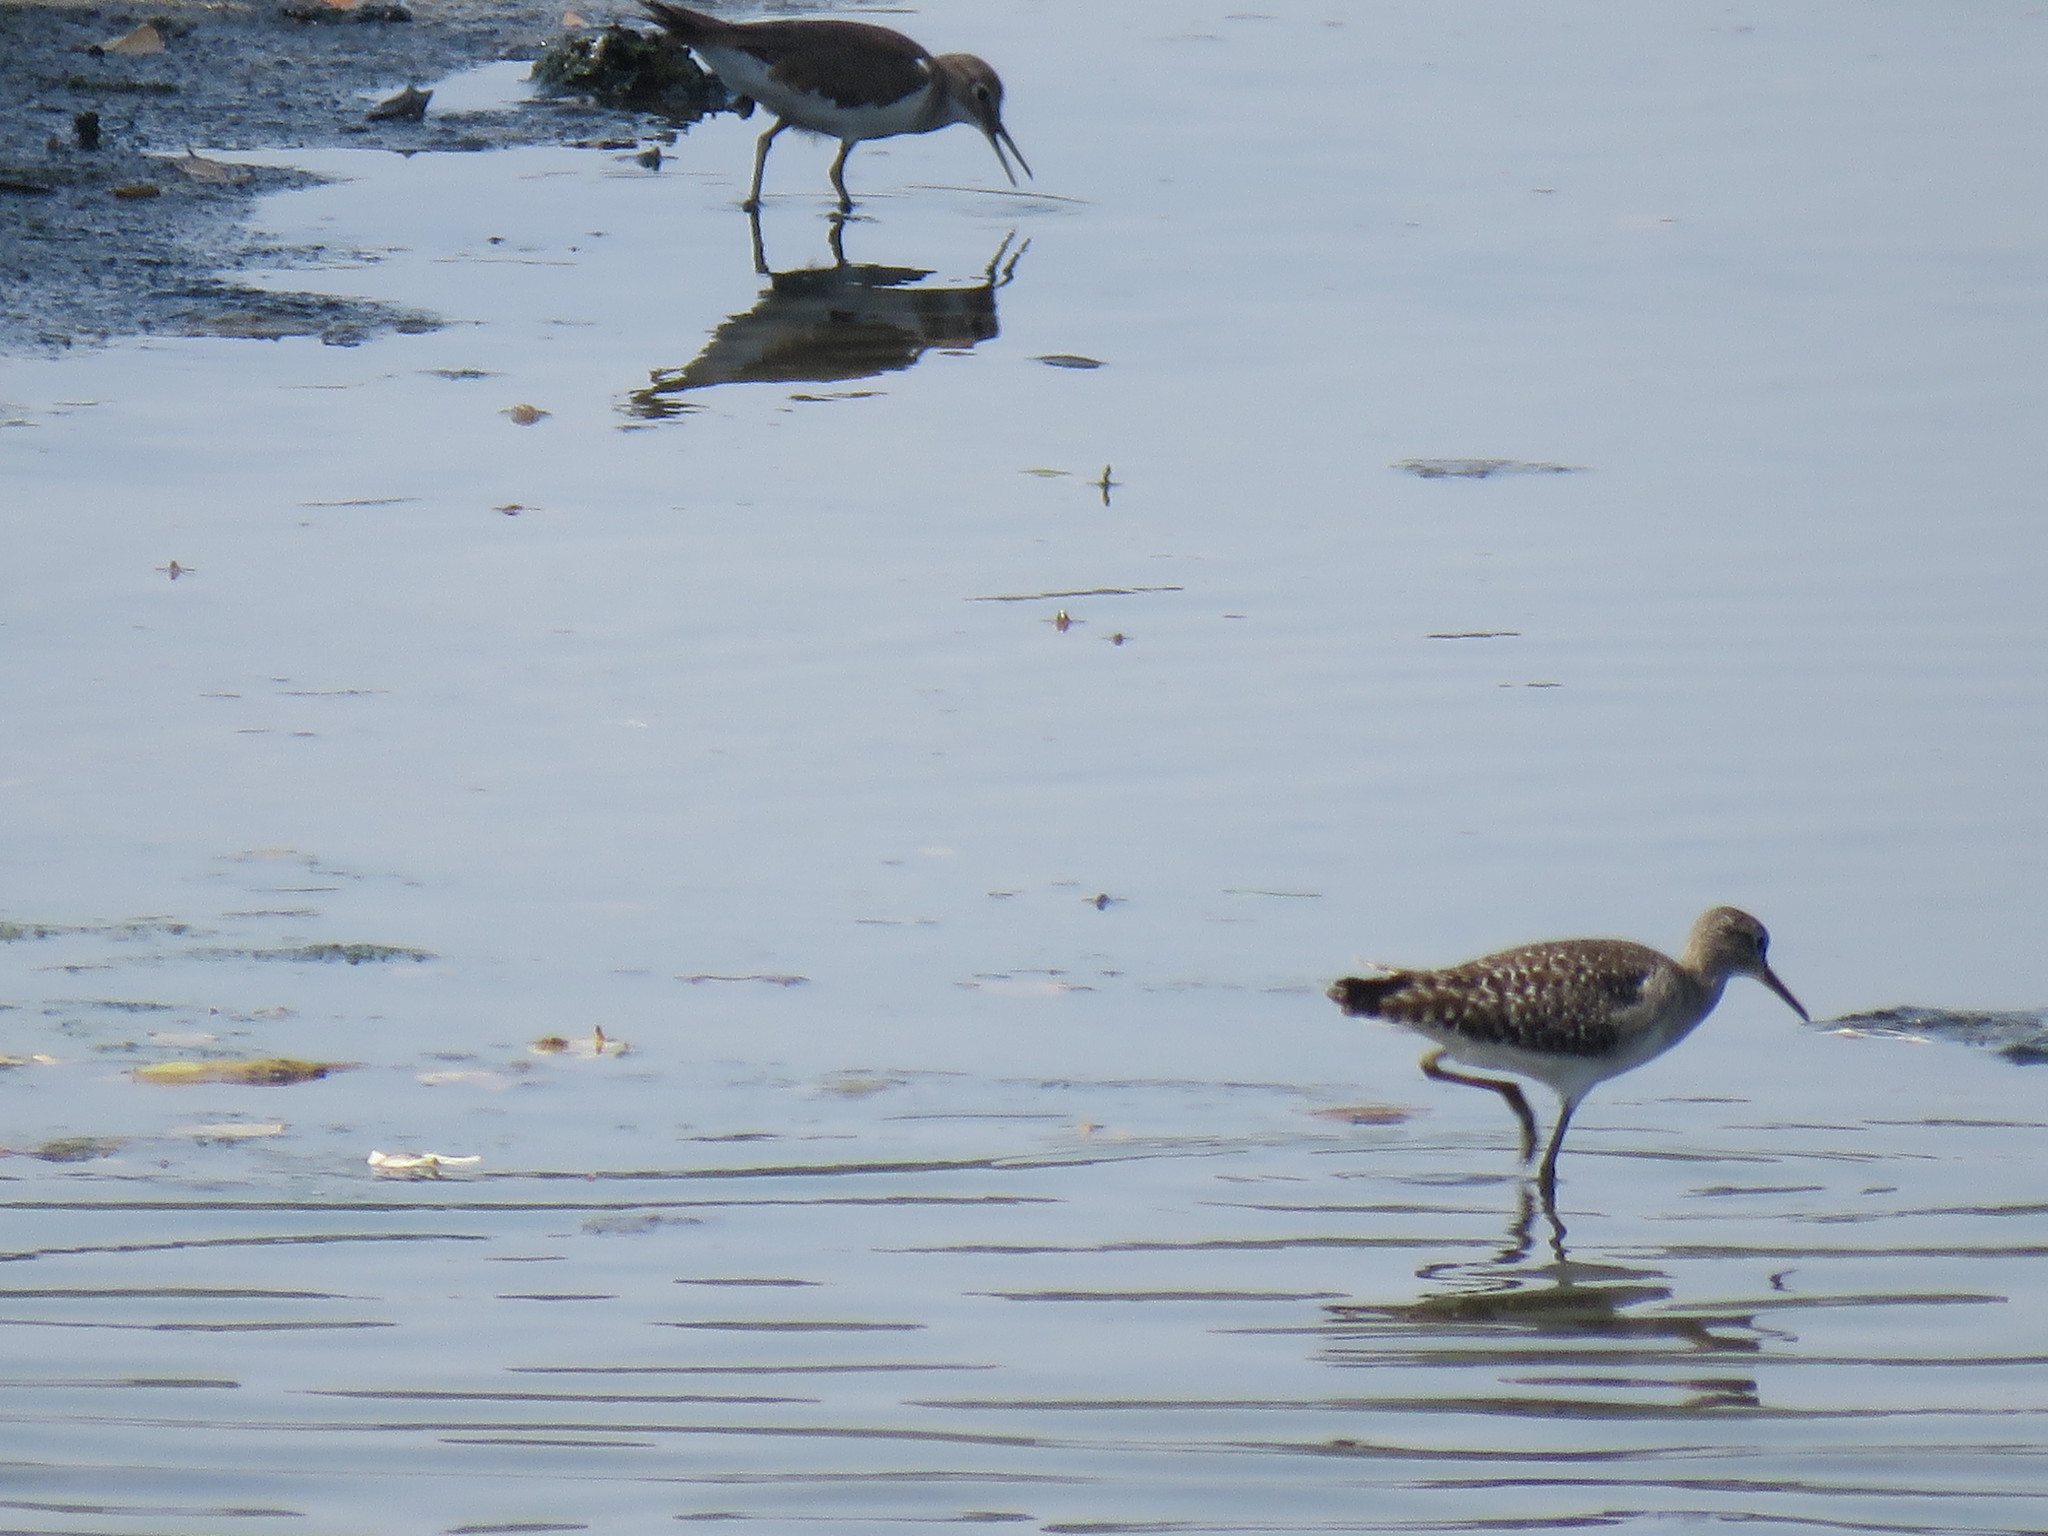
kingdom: Animalia
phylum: Chordata
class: Aves
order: Charadriiformes
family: Scolopacidae
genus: Tringa
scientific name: Tringa glareola
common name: Wood sandpiper
